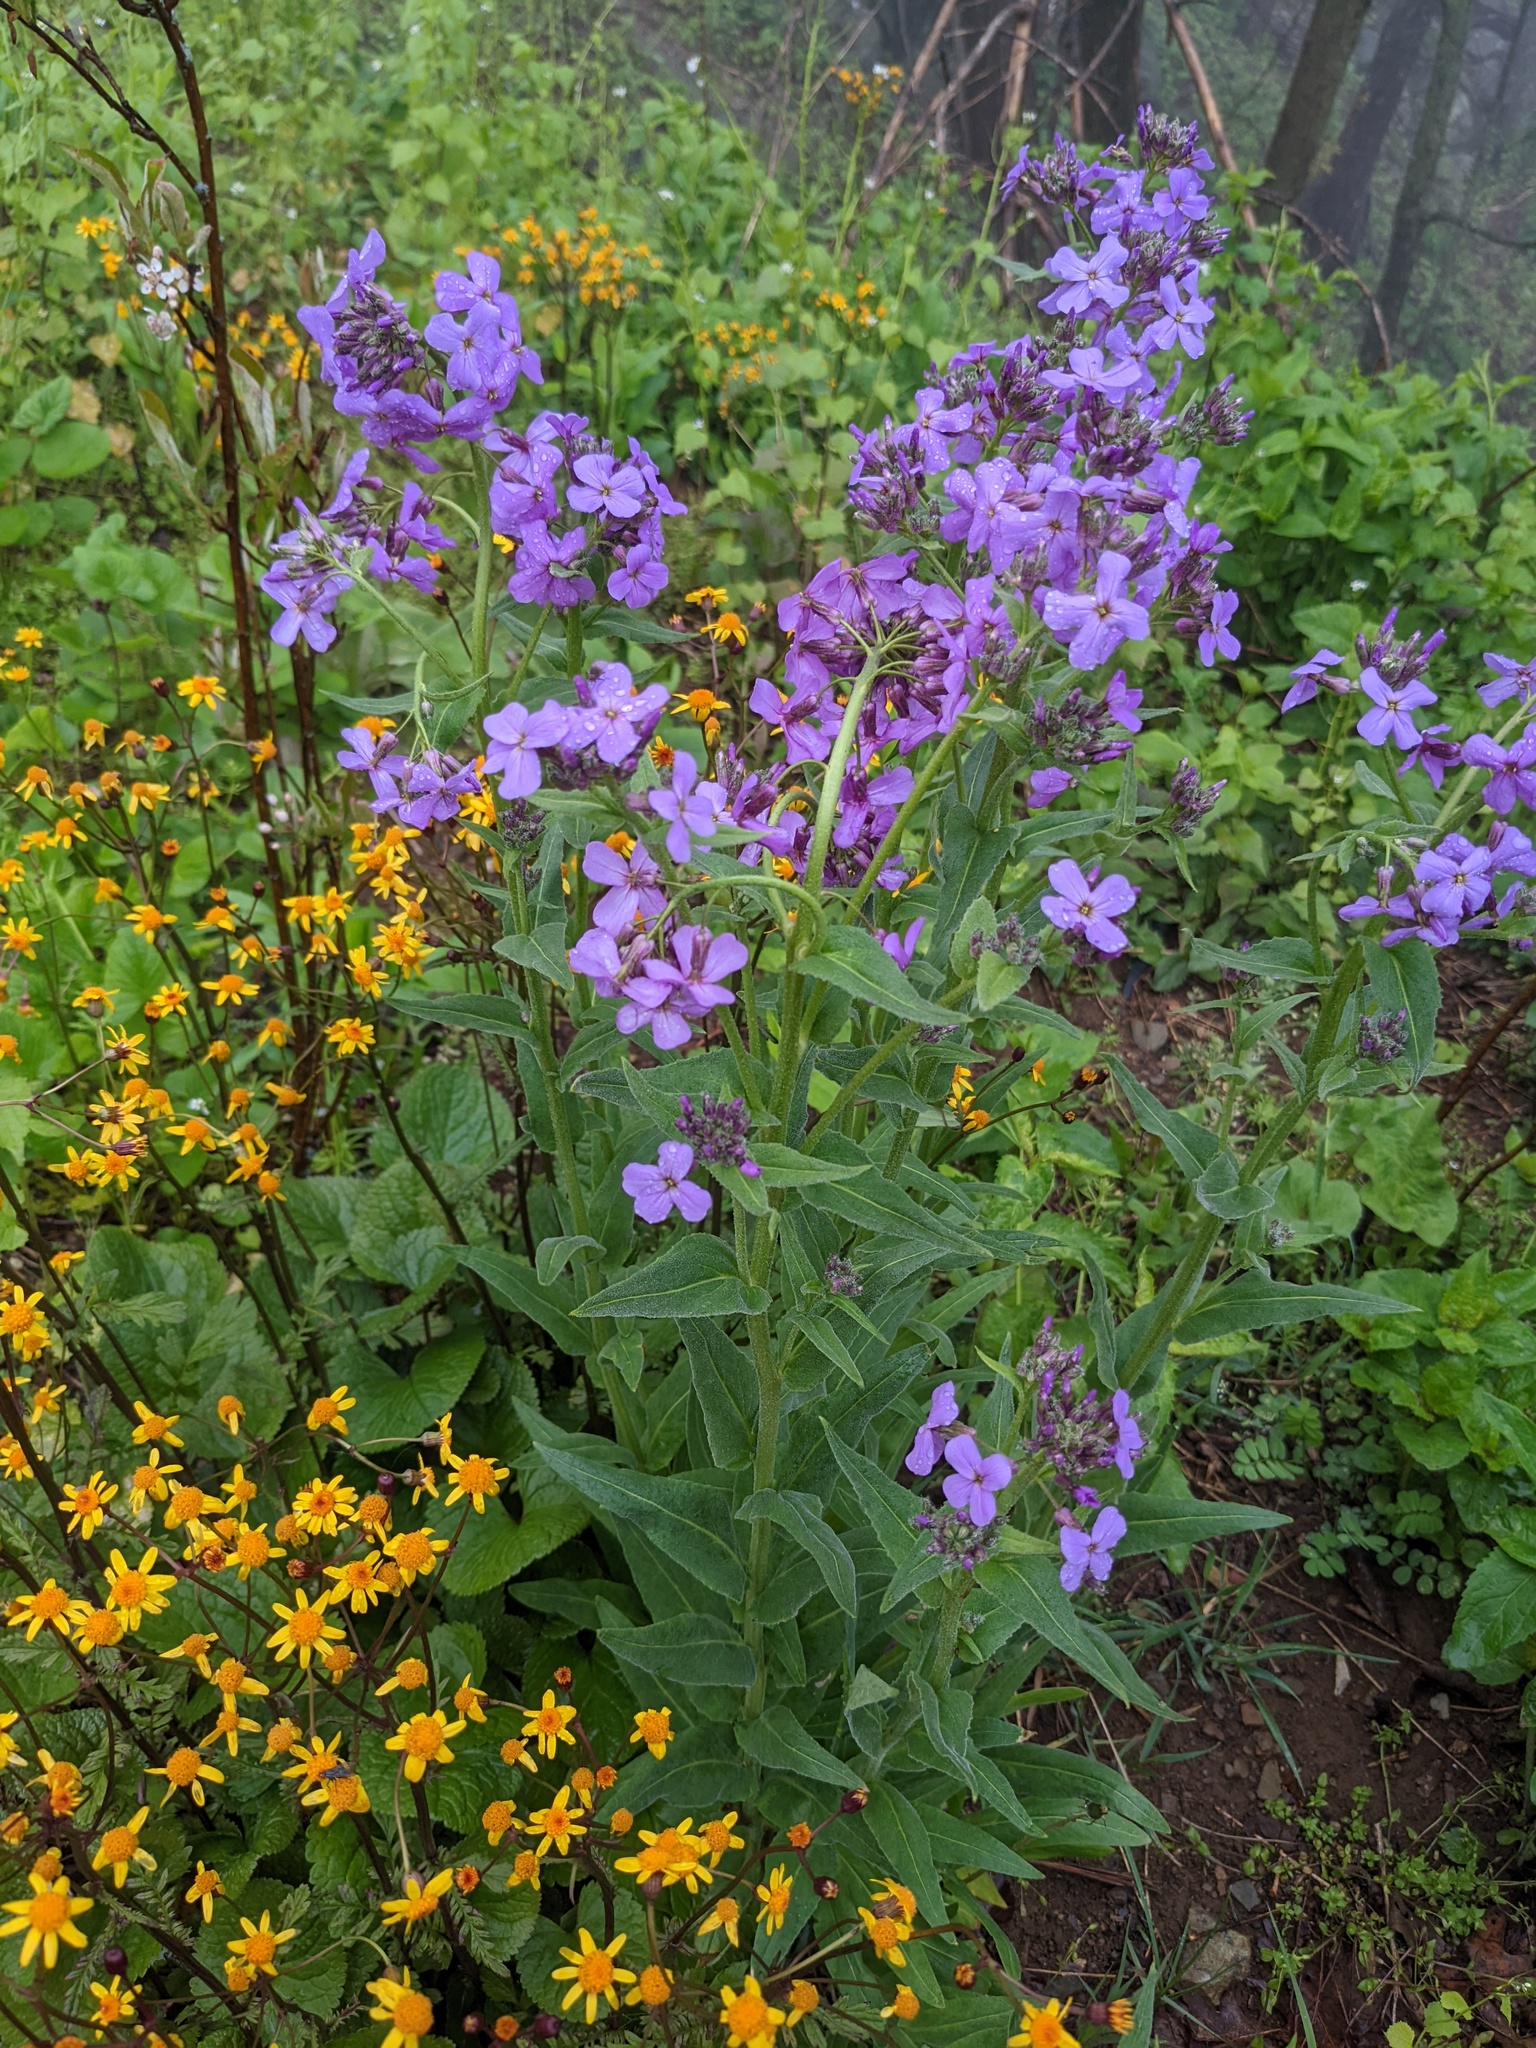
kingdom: Plantae
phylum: Tracheophyta
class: Magnoliopsida
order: Brassicales
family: Brassicaceae
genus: Hesperis
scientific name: Hesperis matronalis
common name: Dame's-violet
